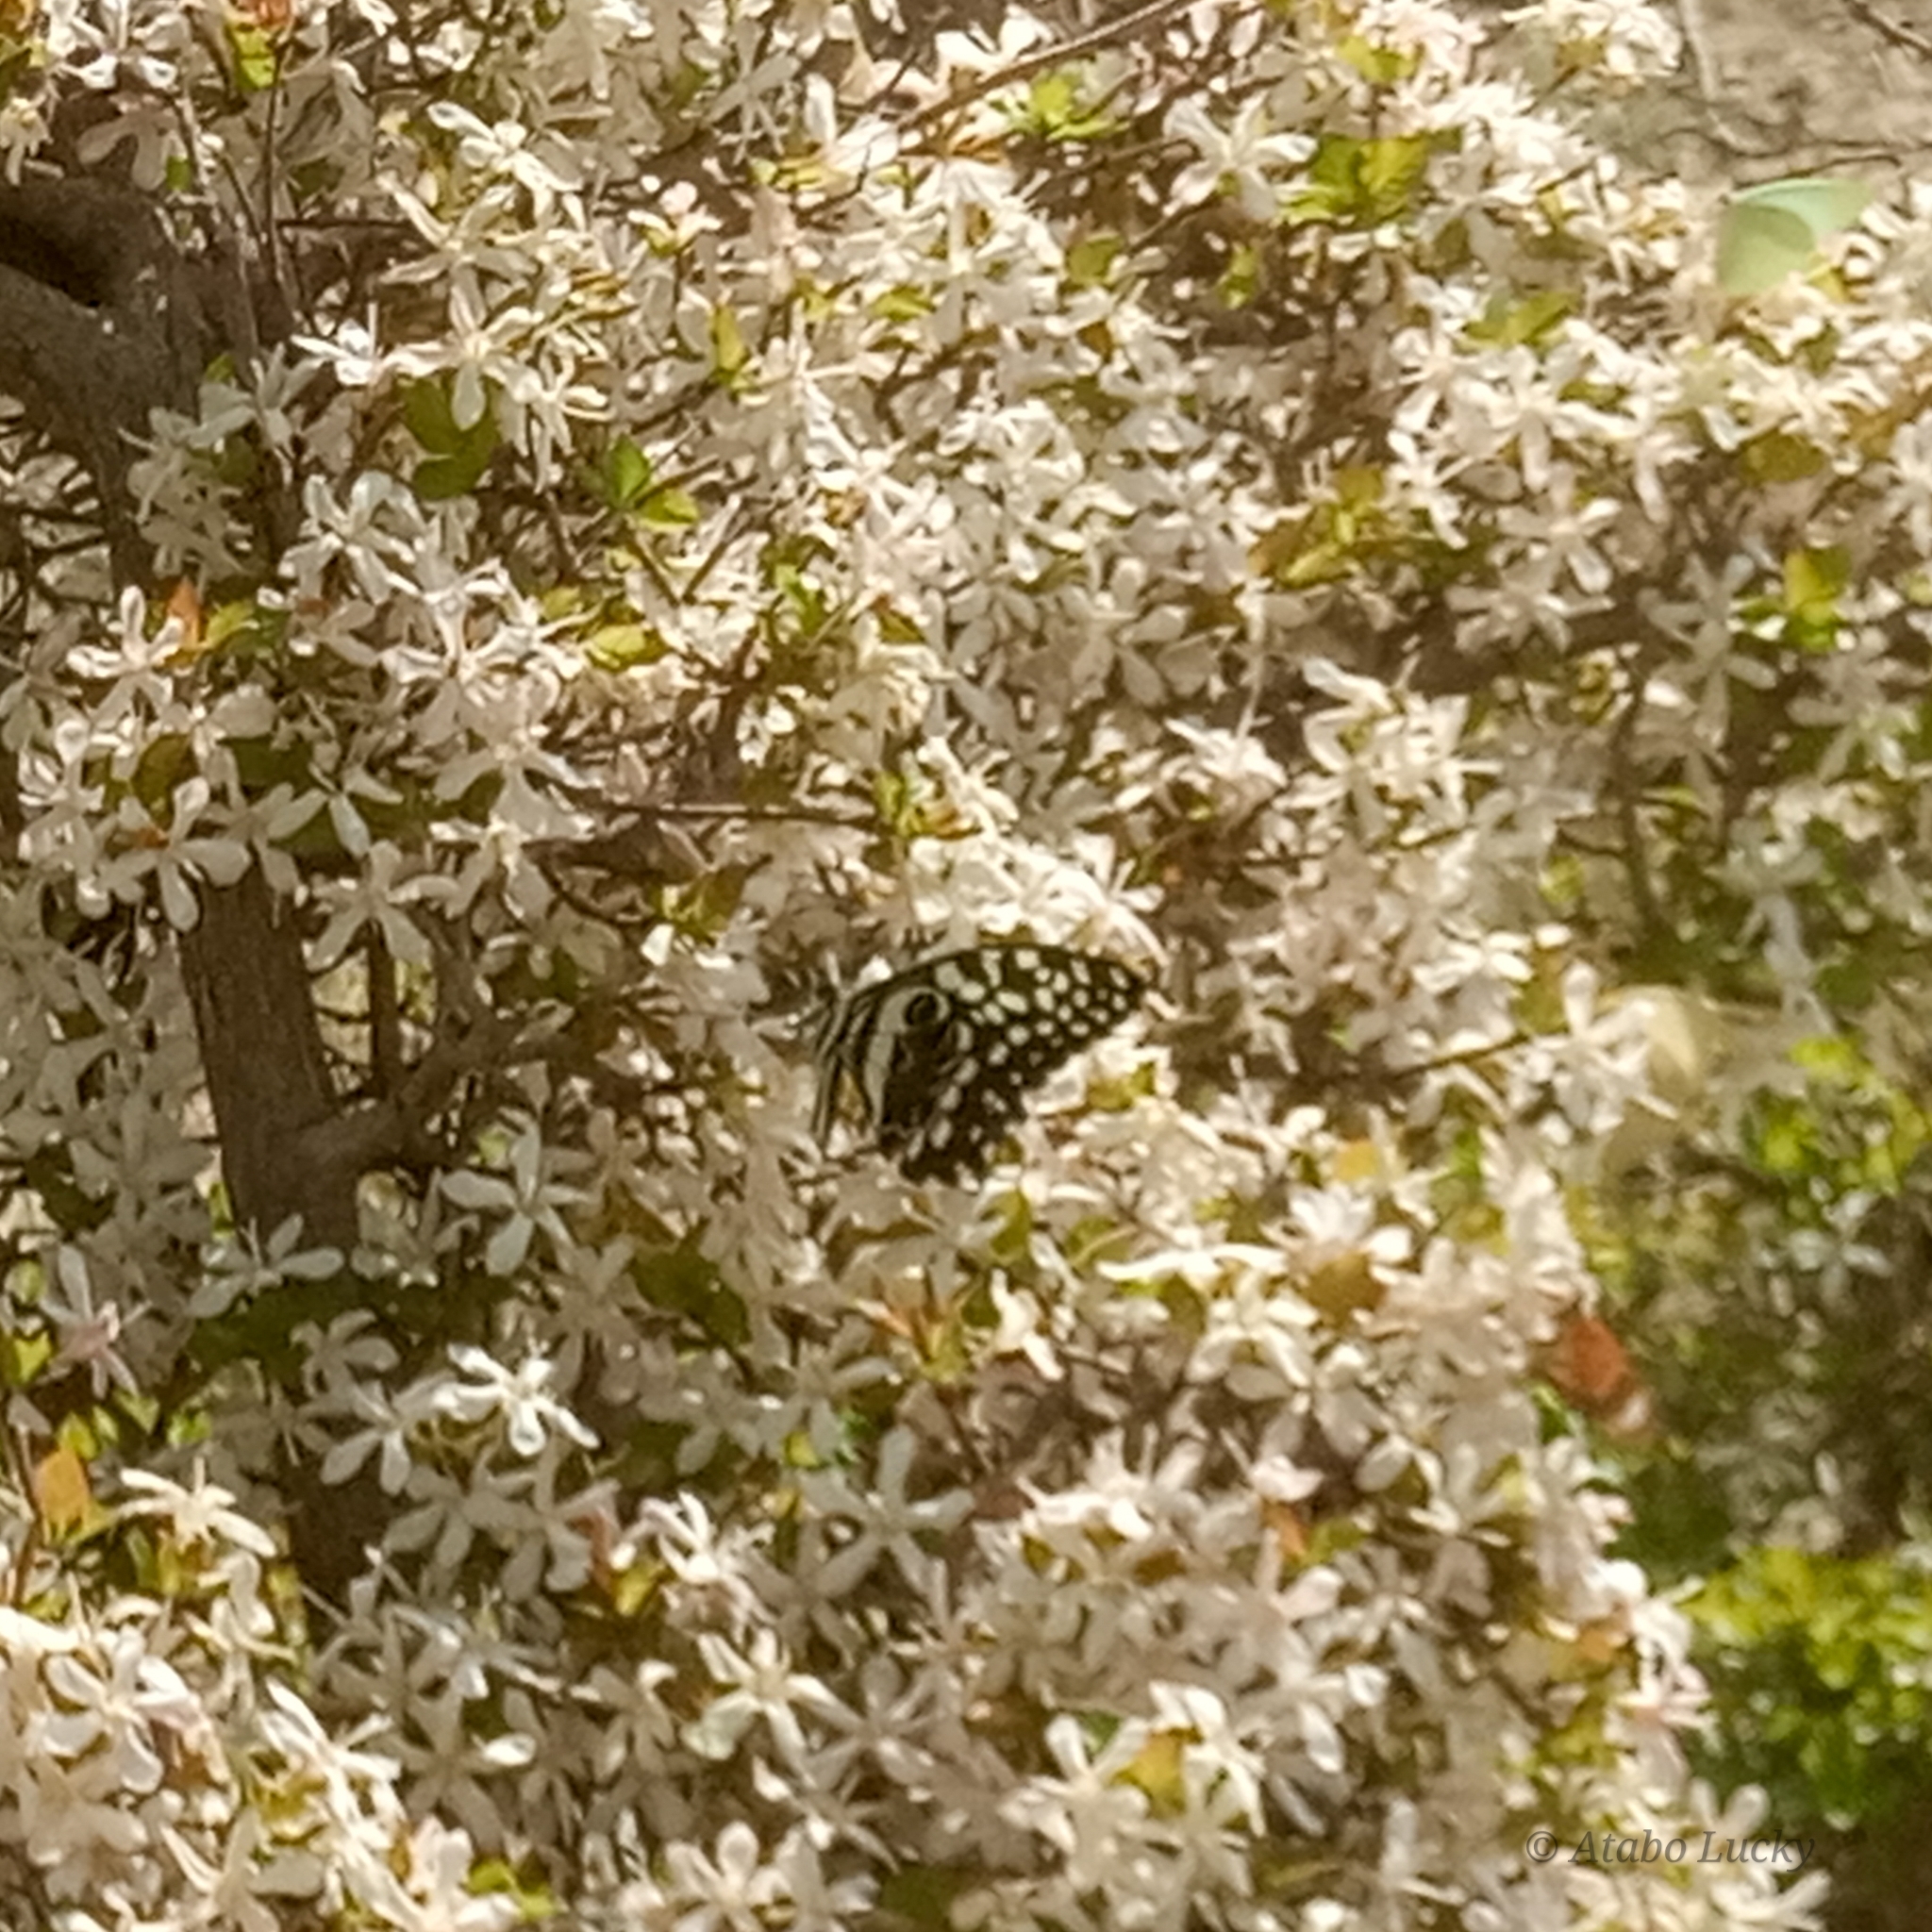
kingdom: Animalia
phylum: Arthropoda
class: Insecta
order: Lepidoptera
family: Papilionidae
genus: Papilio
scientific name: Papilio demodocus
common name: Christmas butterfly
